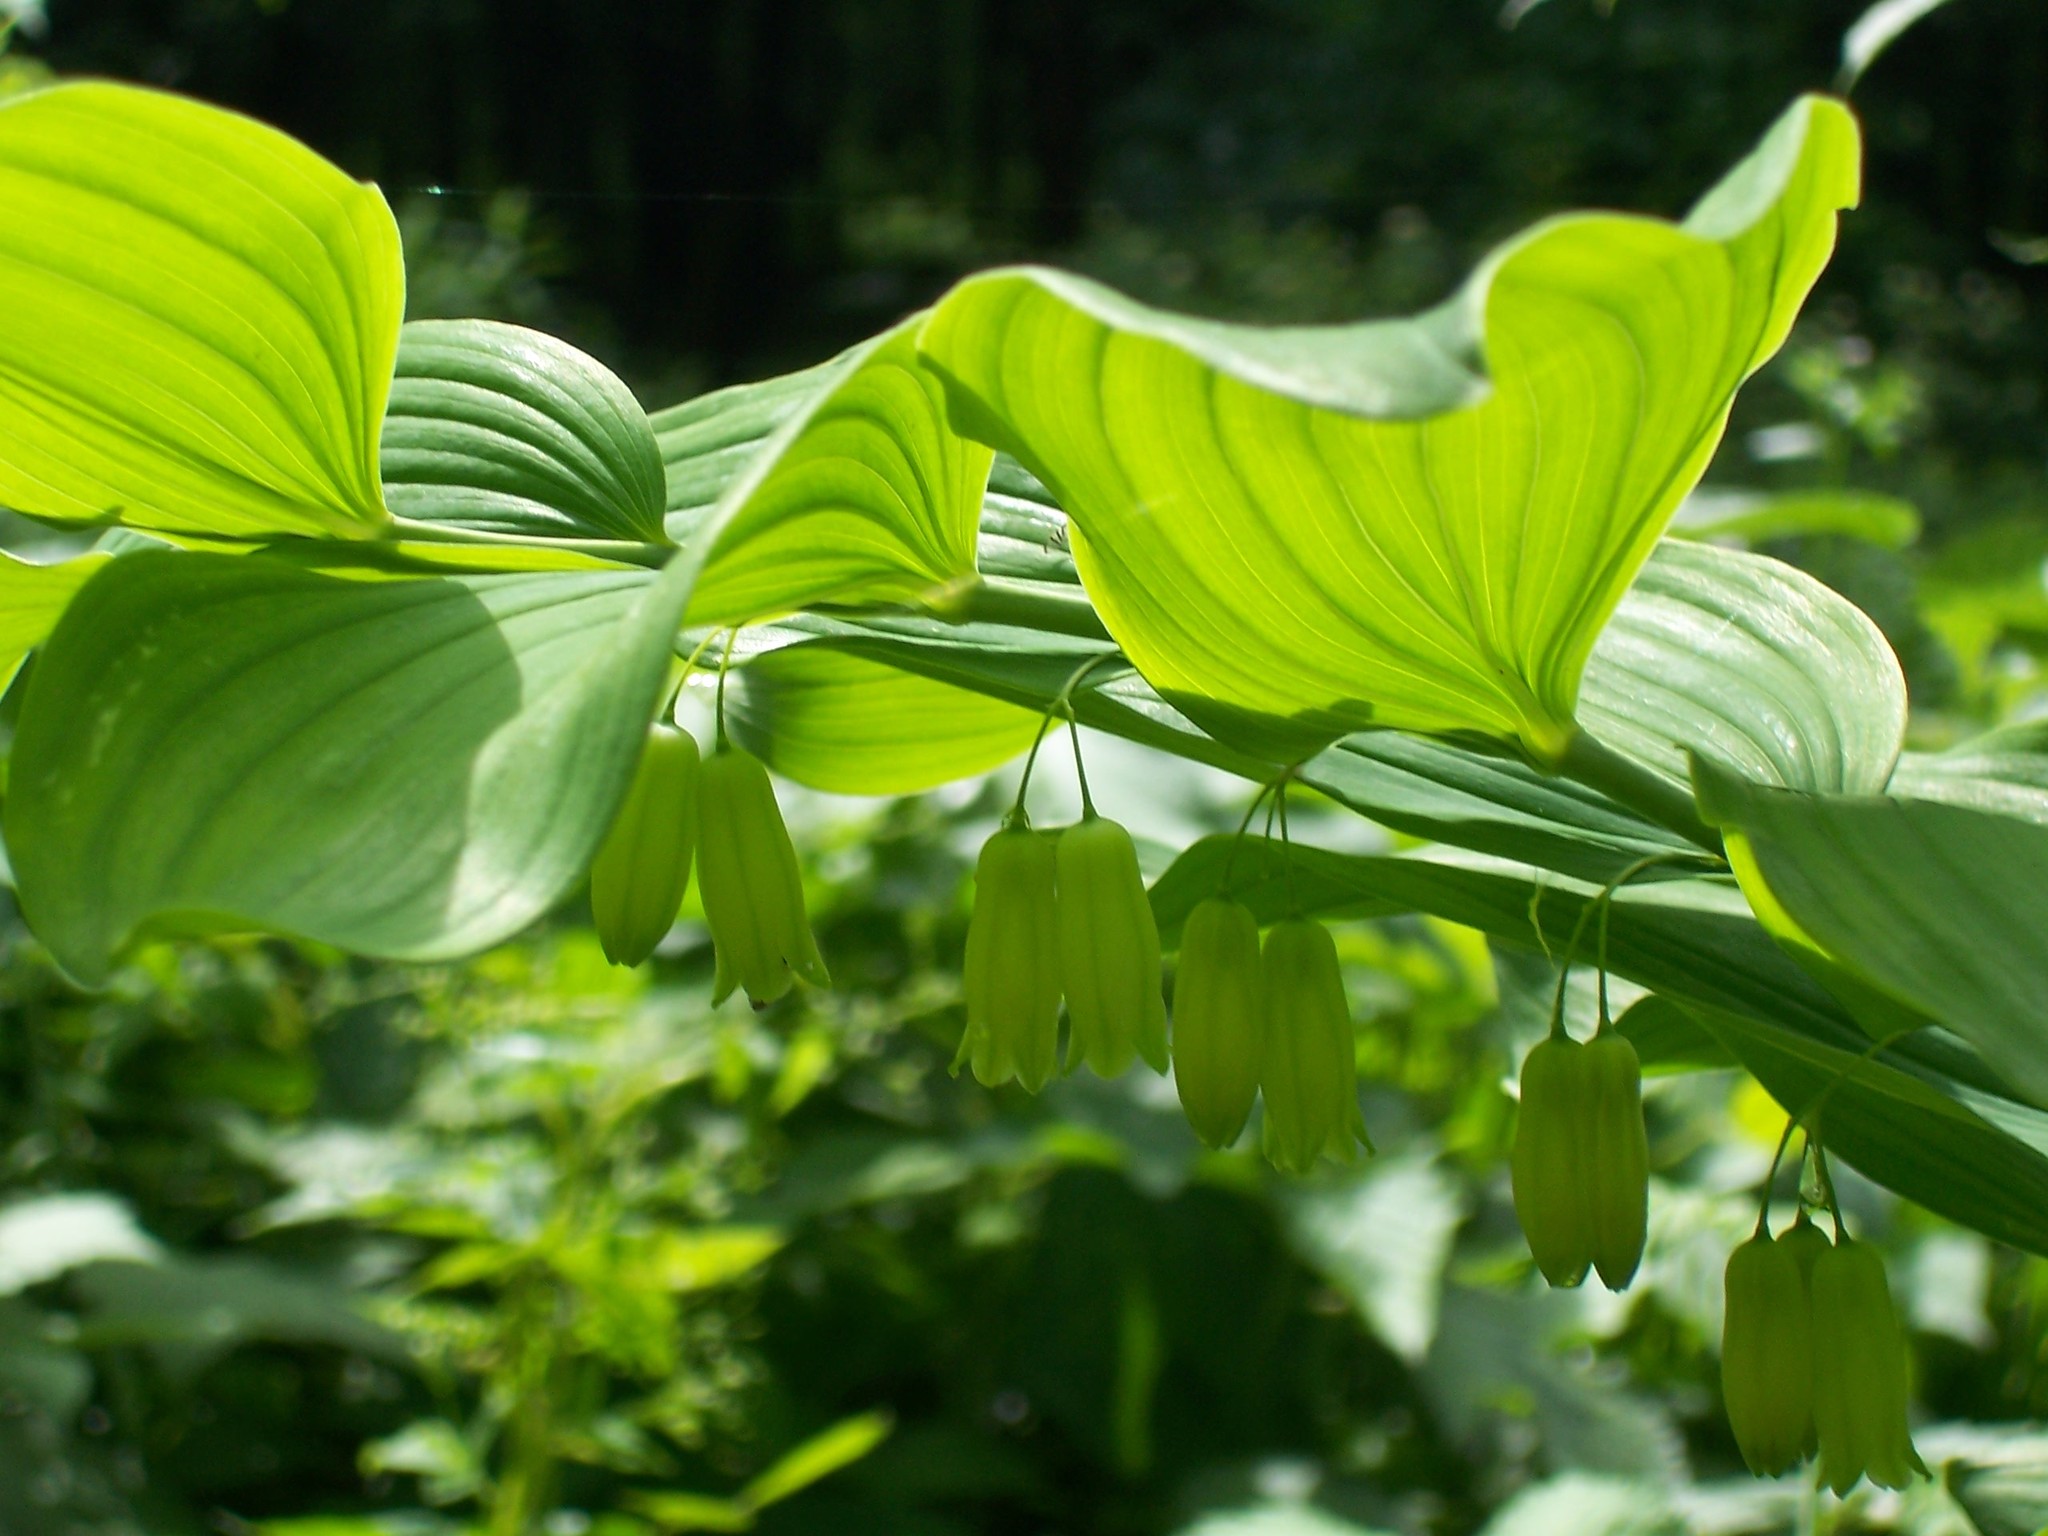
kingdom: Plantae
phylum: Tracheophyta
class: Liliopsida
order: Asparagales
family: Asparagaceae
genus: Polygonatum
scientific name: Polygonatum biflorum
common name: American solomon's-seal
